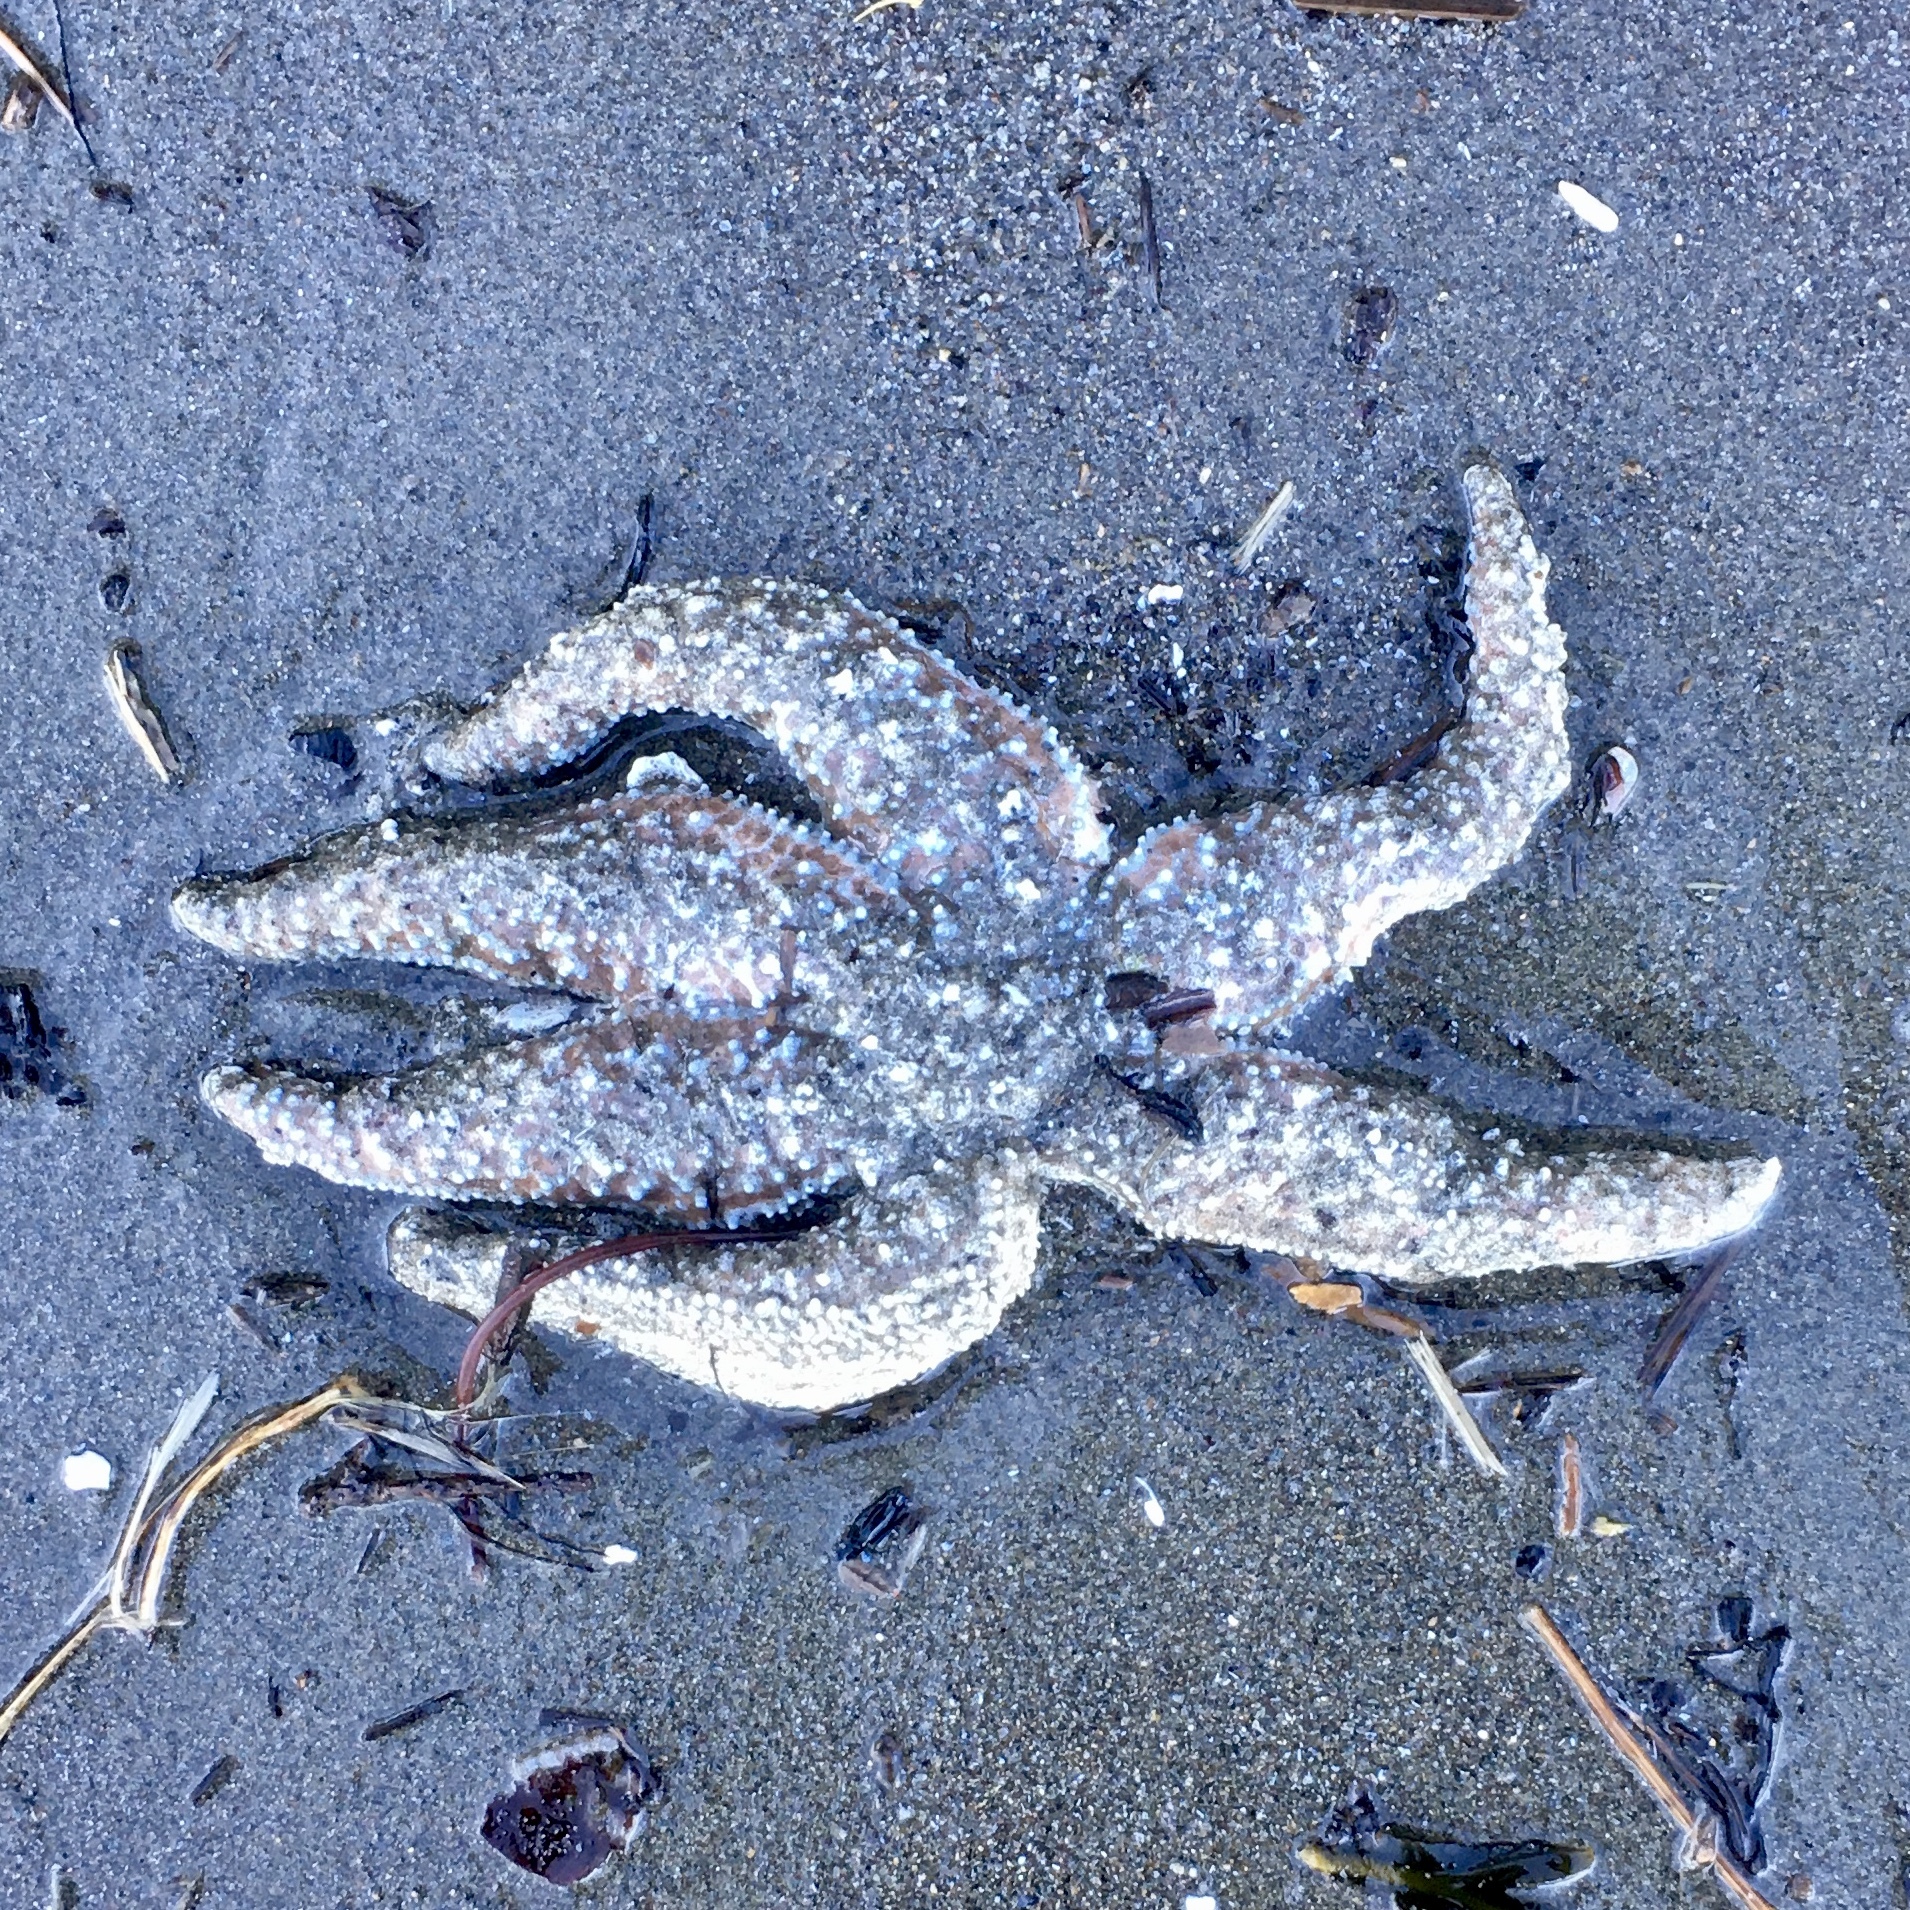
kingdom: Animalia
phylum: Echinodermata
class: Asteroidea
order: Forcipulatida
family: Asteriidae
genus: Evasterias
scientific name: Evasterias troschelii
